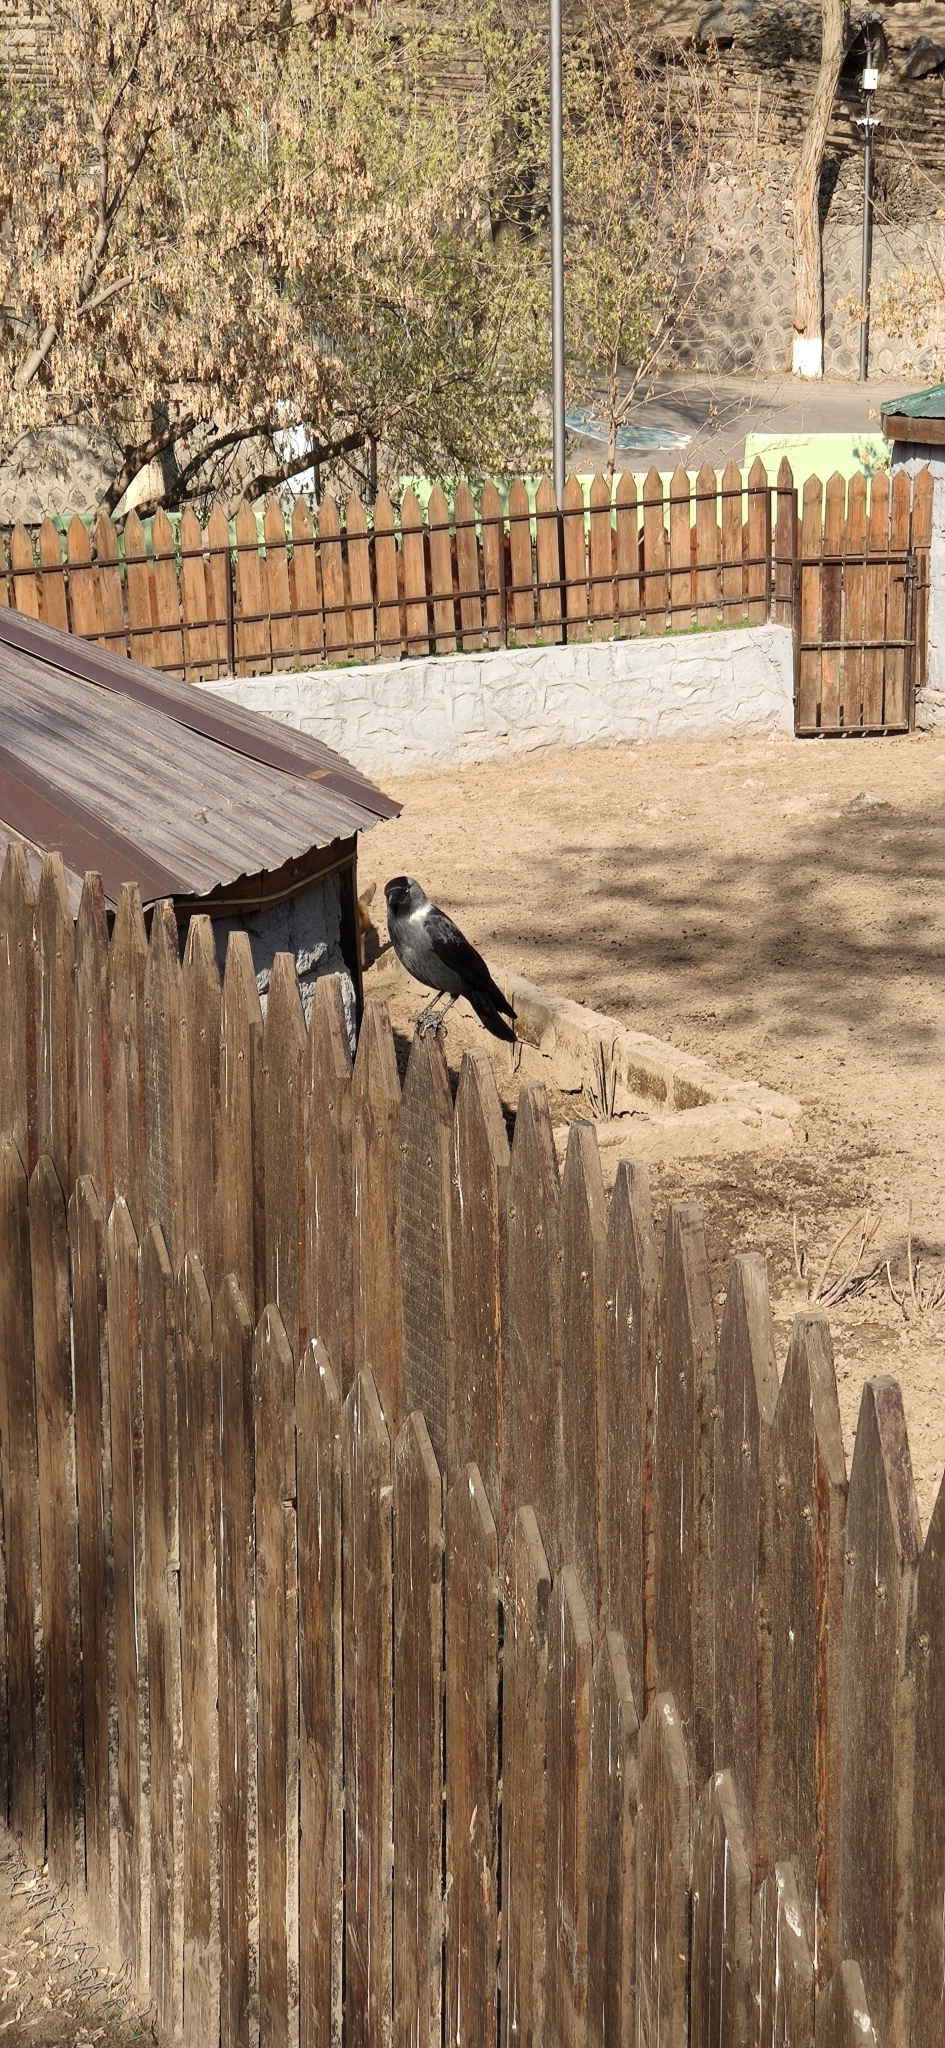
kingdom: Animalia
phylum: Chordata
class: Aves
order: Passeriformes
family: Corvidae
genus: Coloeus
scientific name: Coloeus monedula
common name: Western jackdaw
